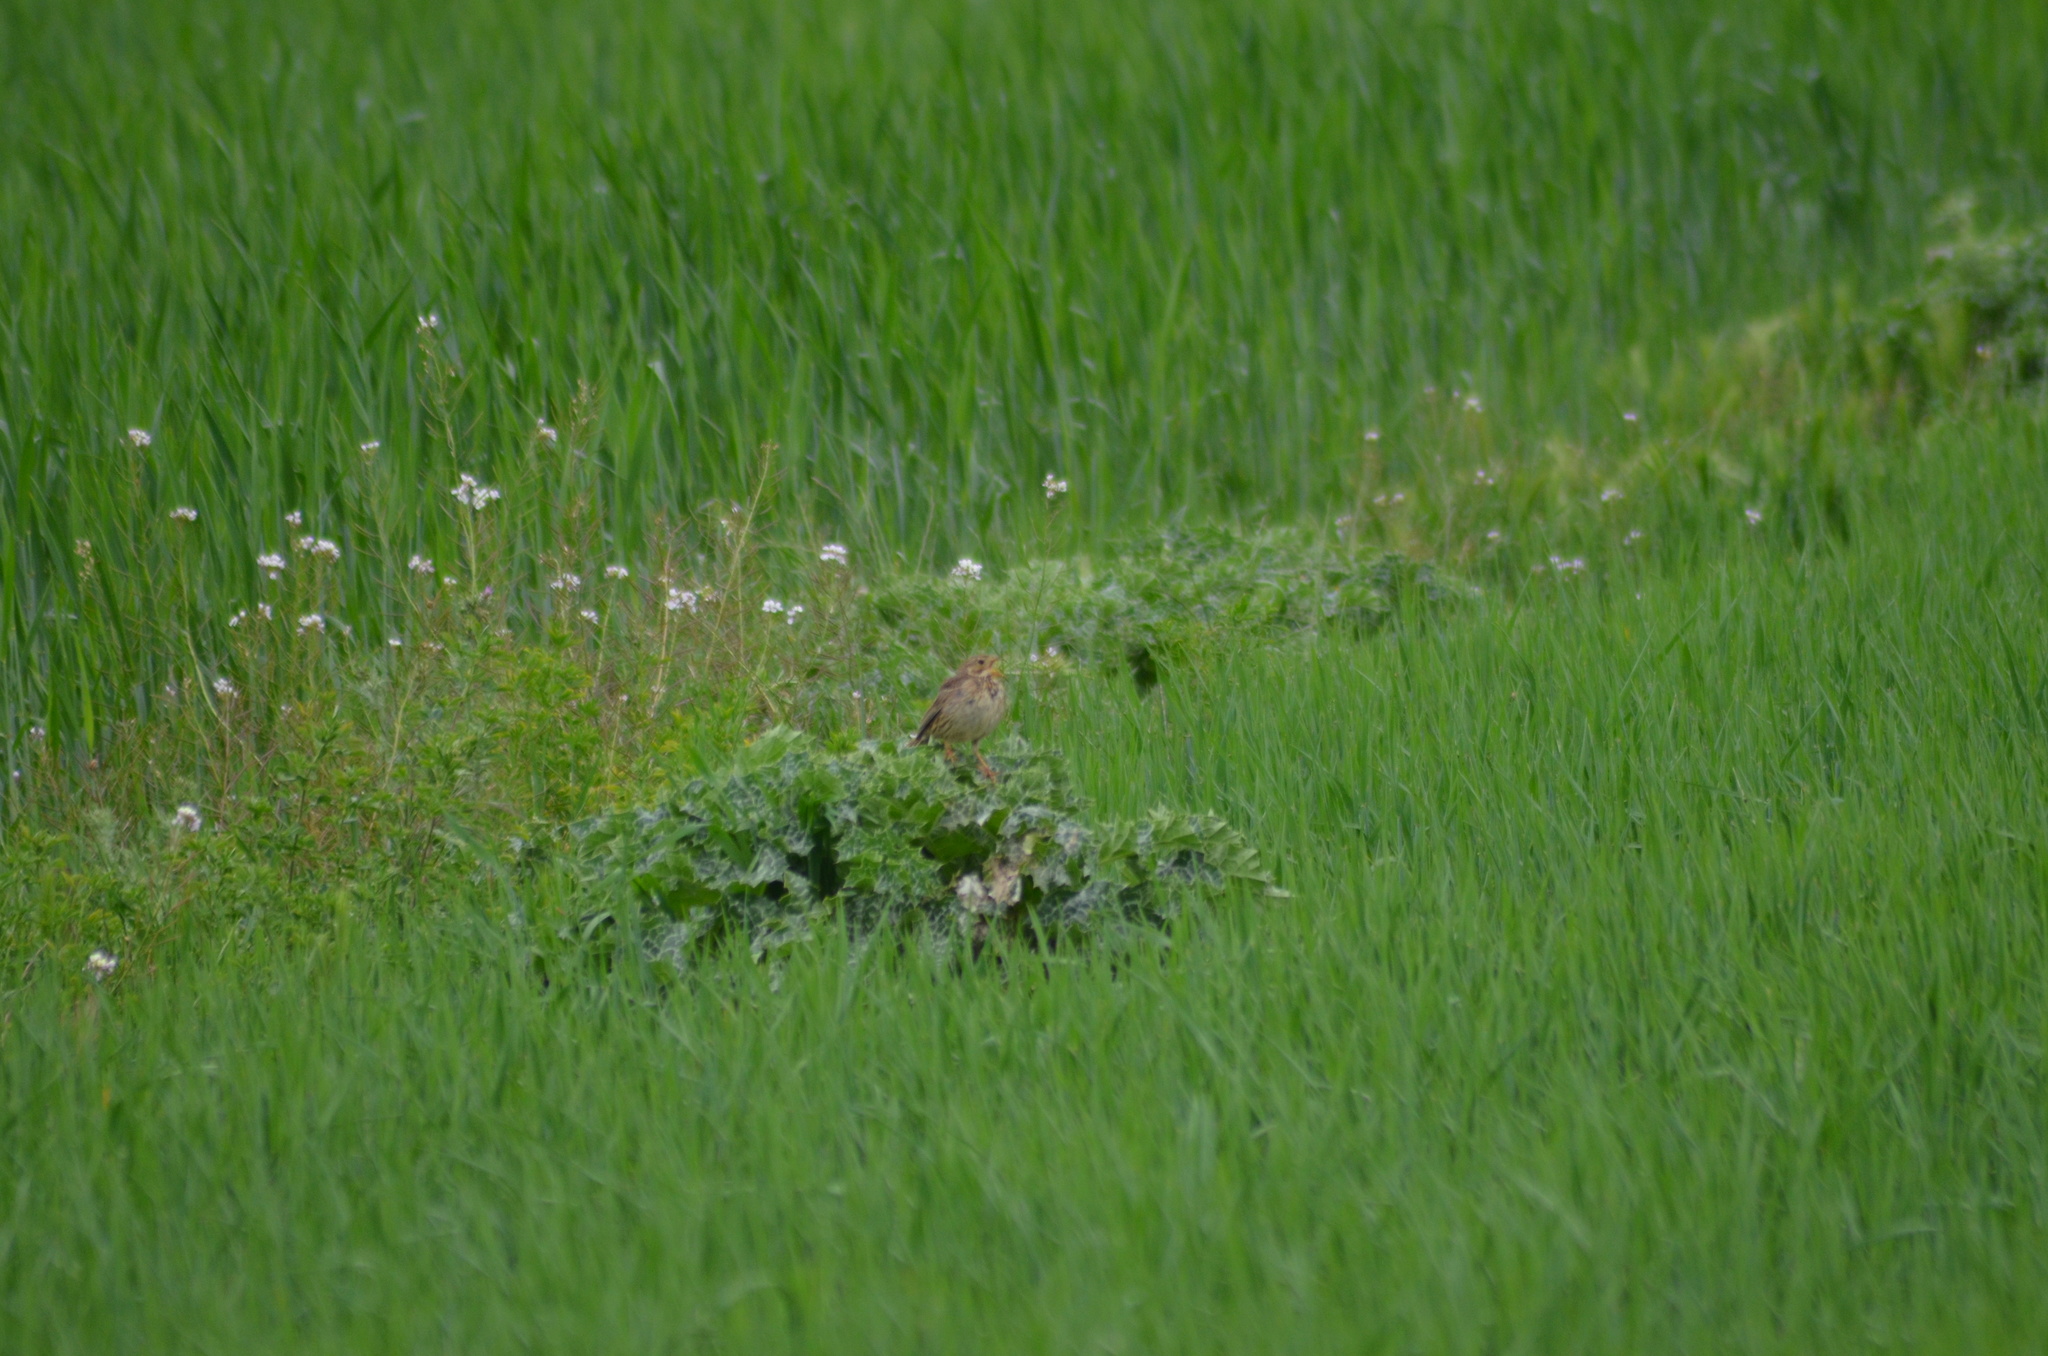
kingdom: Animalia
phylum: Chordata
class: Aves
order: Passeriformes
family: Emberizidae
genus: Emberiza
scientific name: Emberiza calandra
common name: Corn bunting
